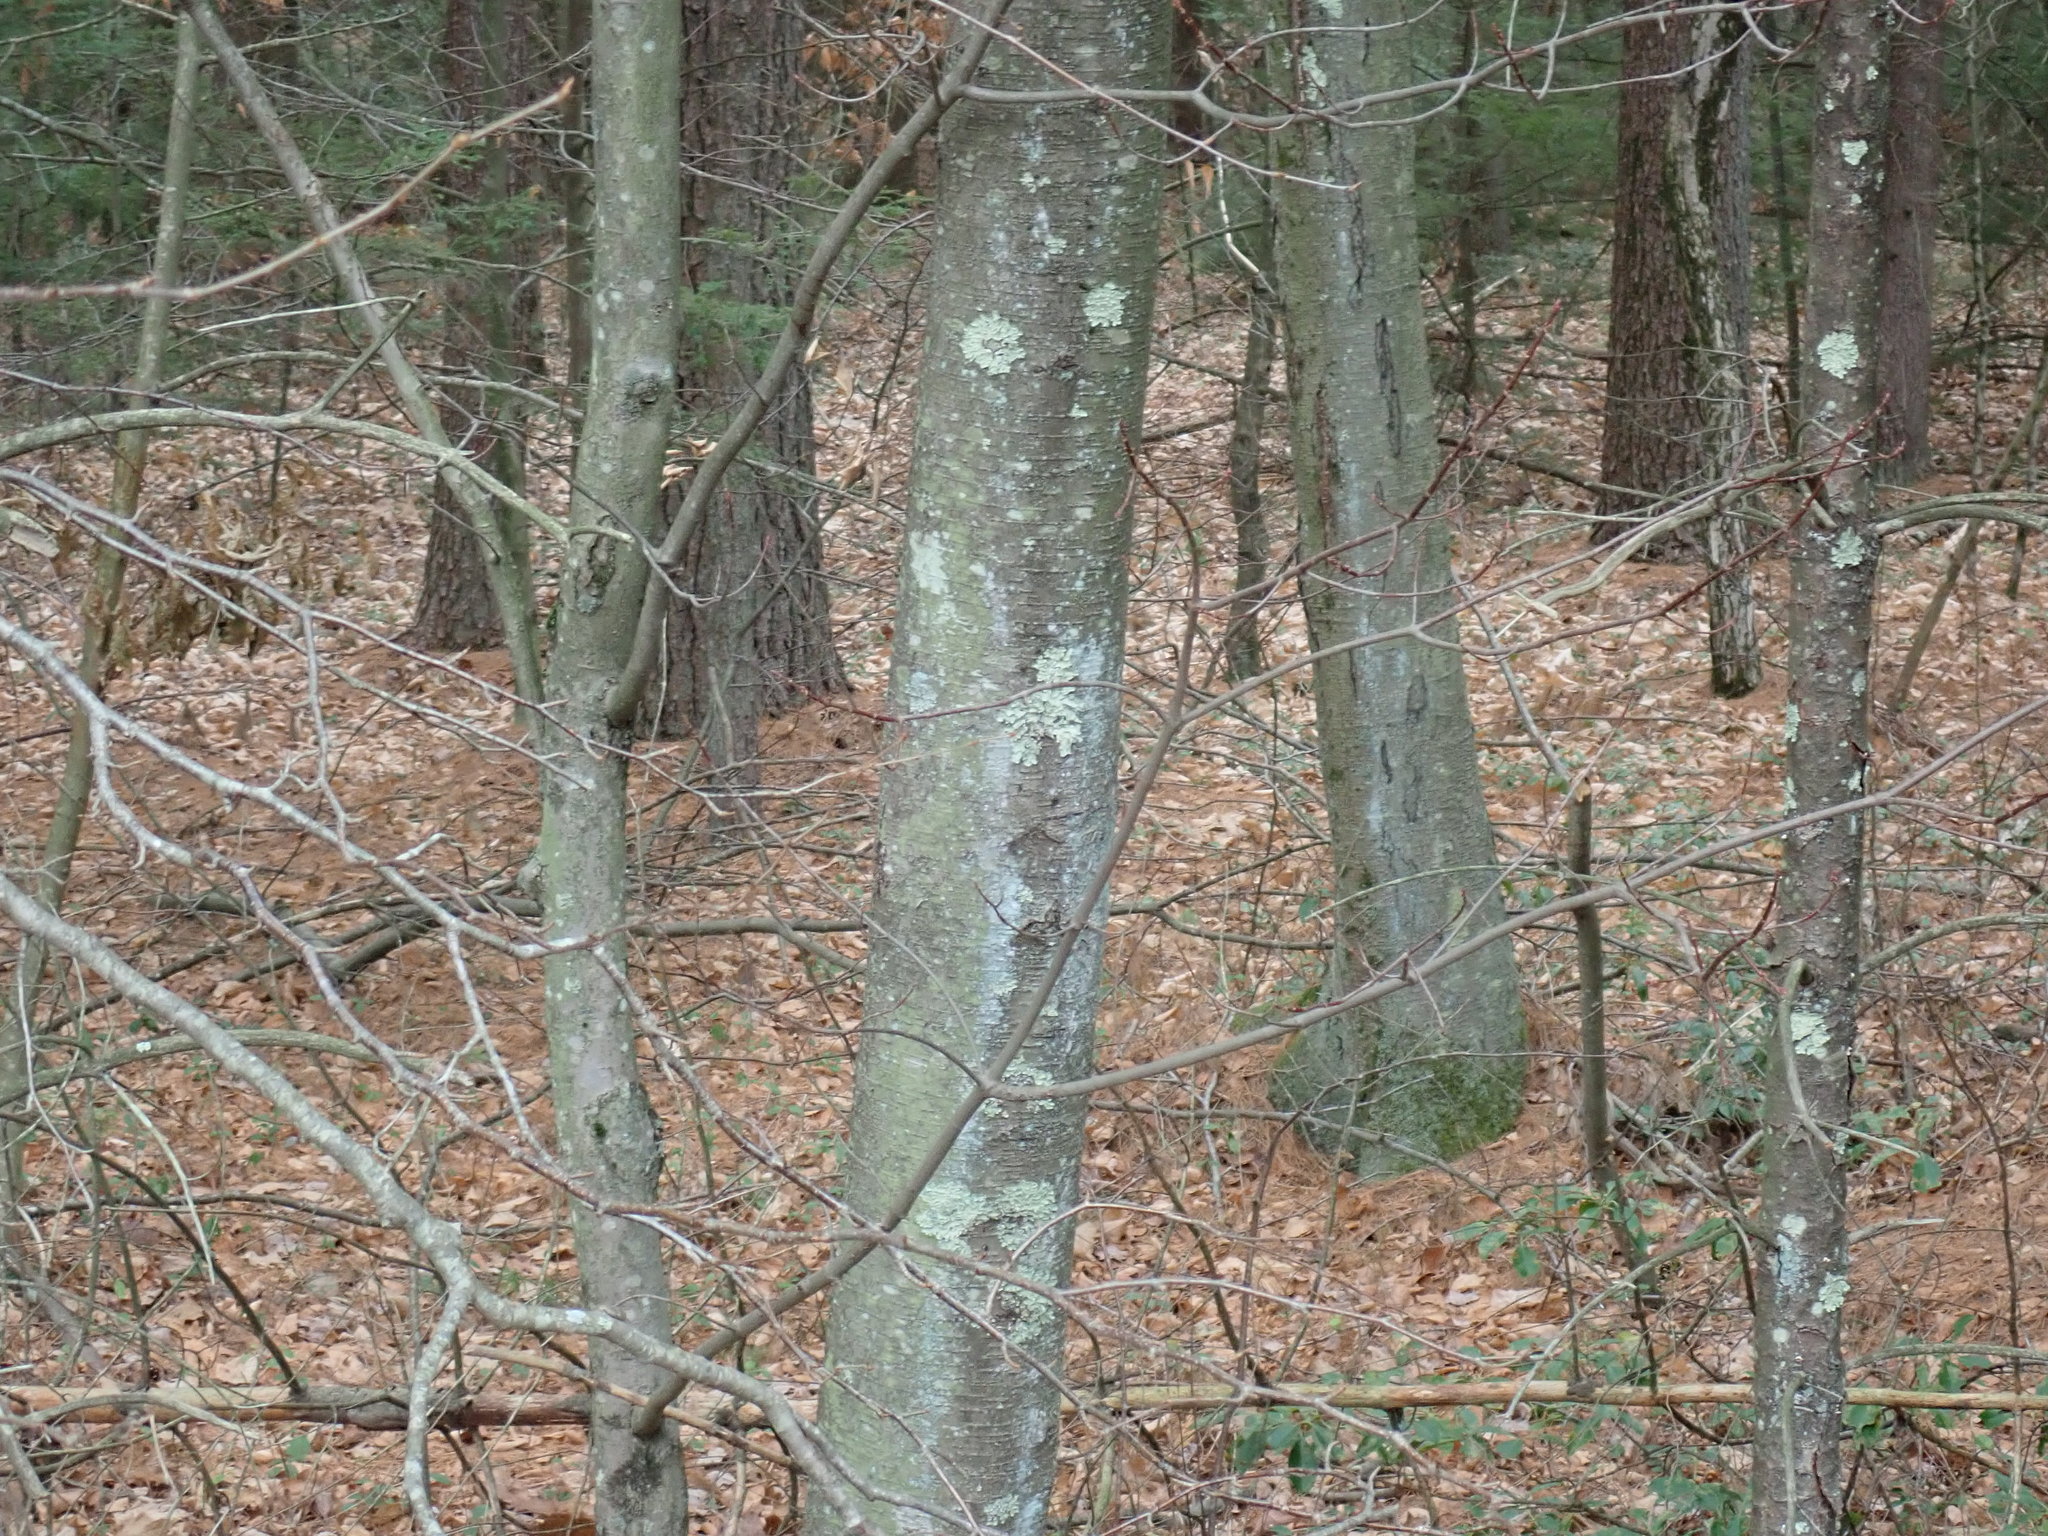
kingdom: Plantae
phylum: Tracheophyta
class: Magnoliopsida
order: Fagales
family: Betulaceae
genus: Betula
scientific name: Betula lenta
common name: Black birch
